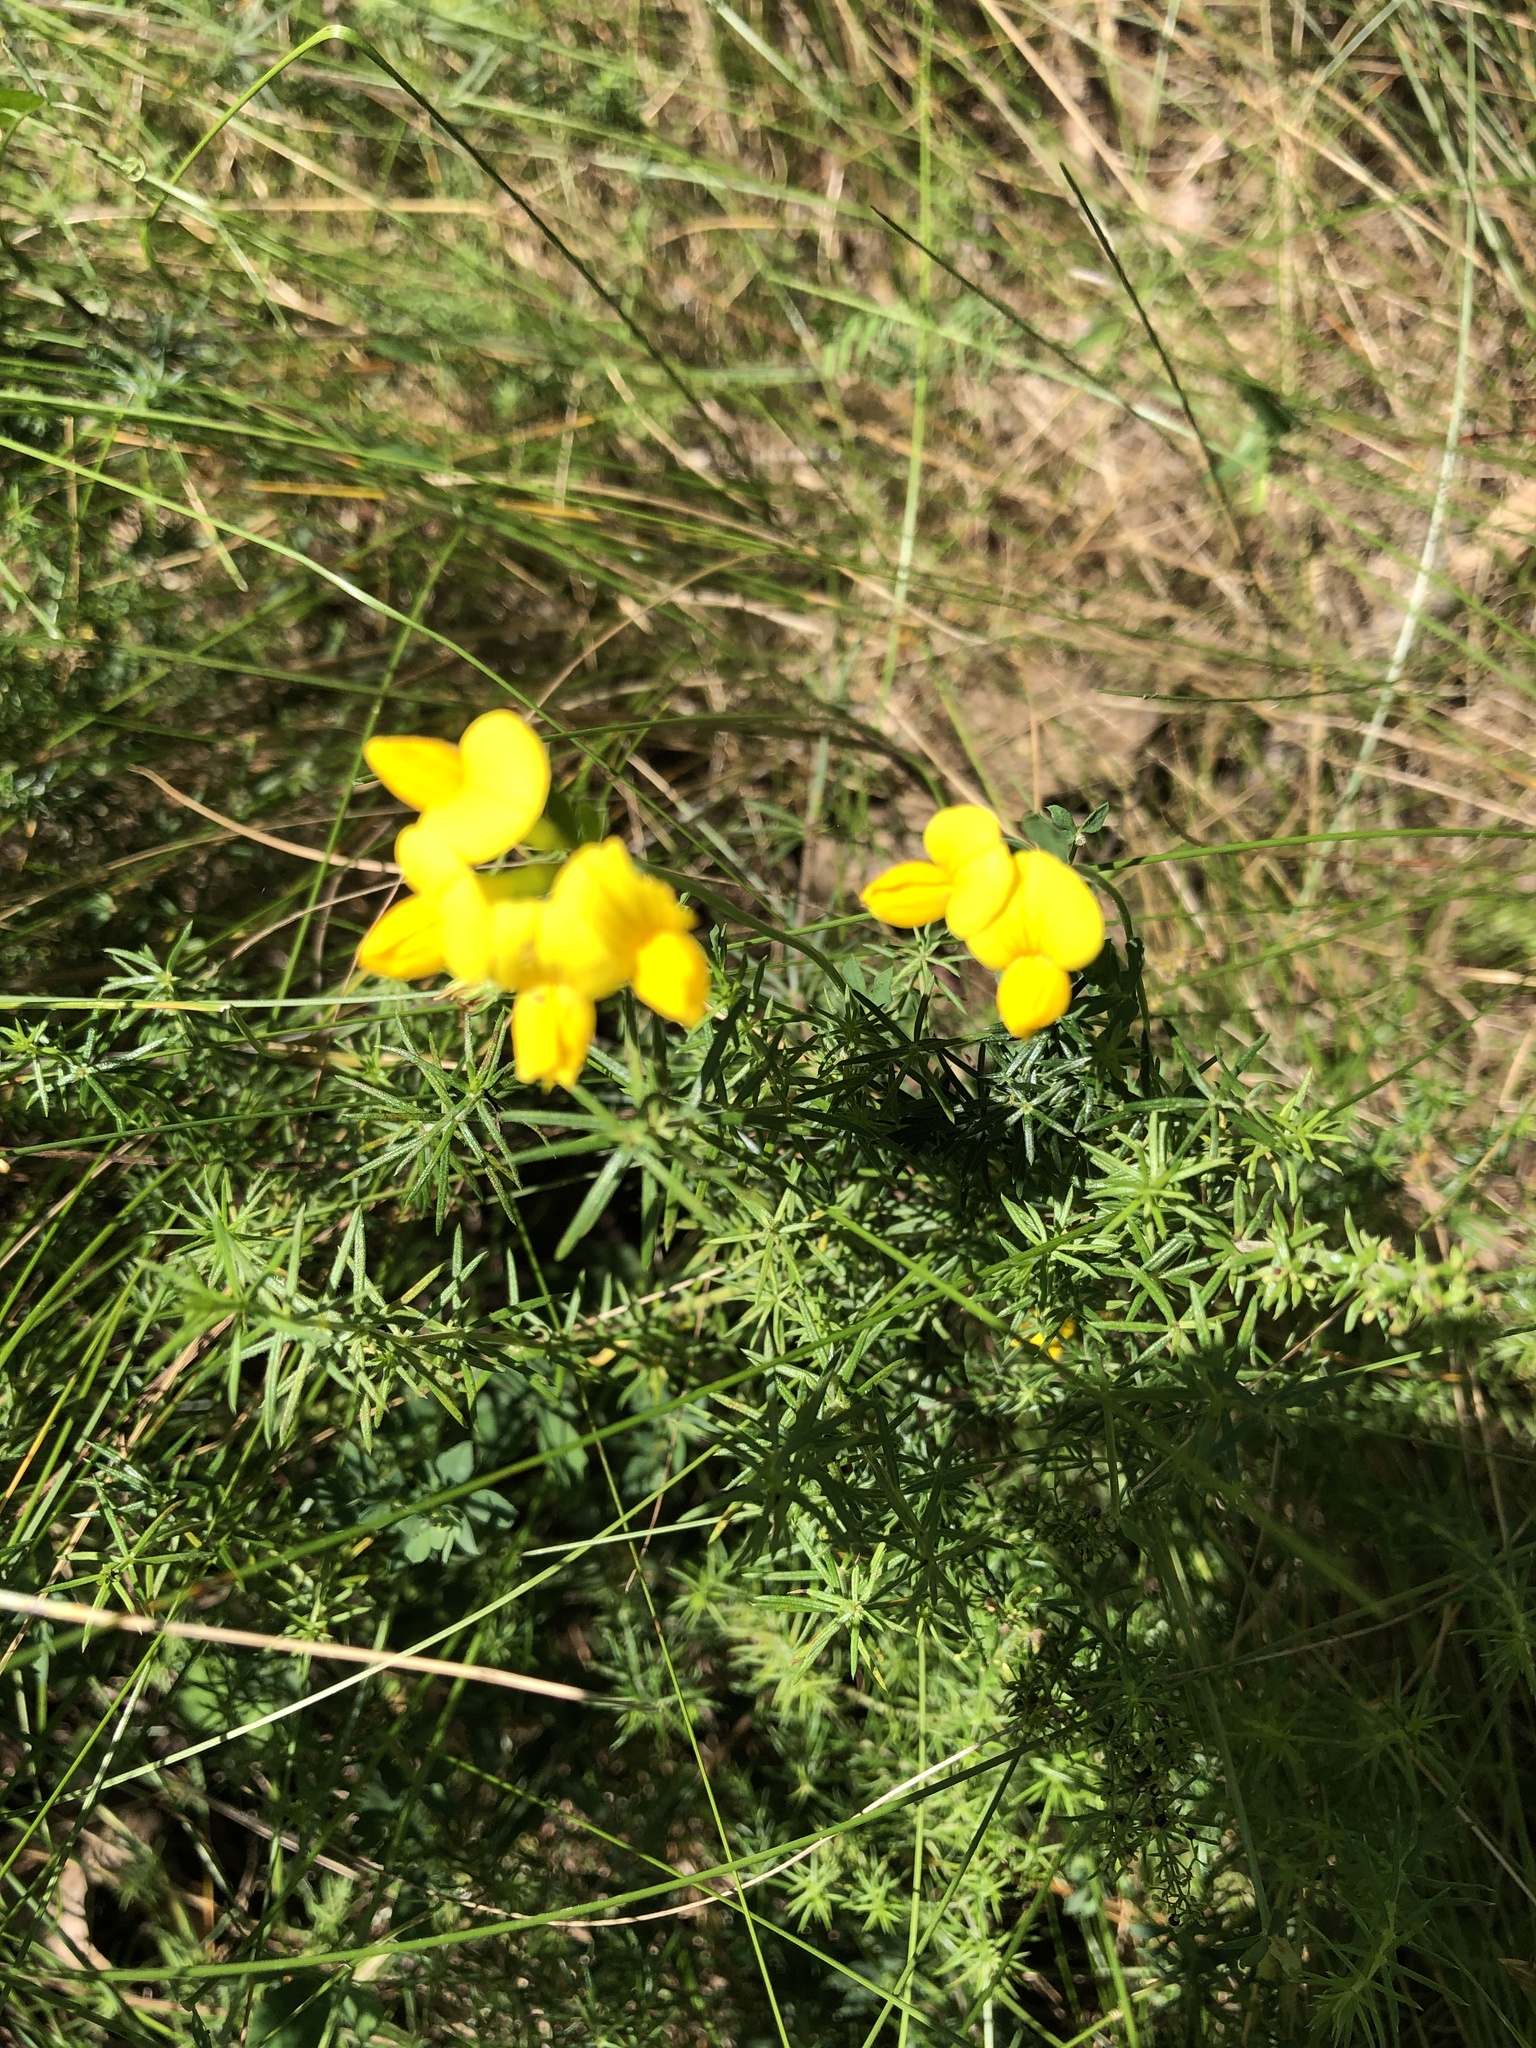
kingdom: Plantae
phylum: Tracheophyta
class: Magnoliopsida
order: Fabales
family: Fabaceae
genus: Lotus
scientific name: Lotus corniculatus
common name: Common bird's-foot-trefoil
